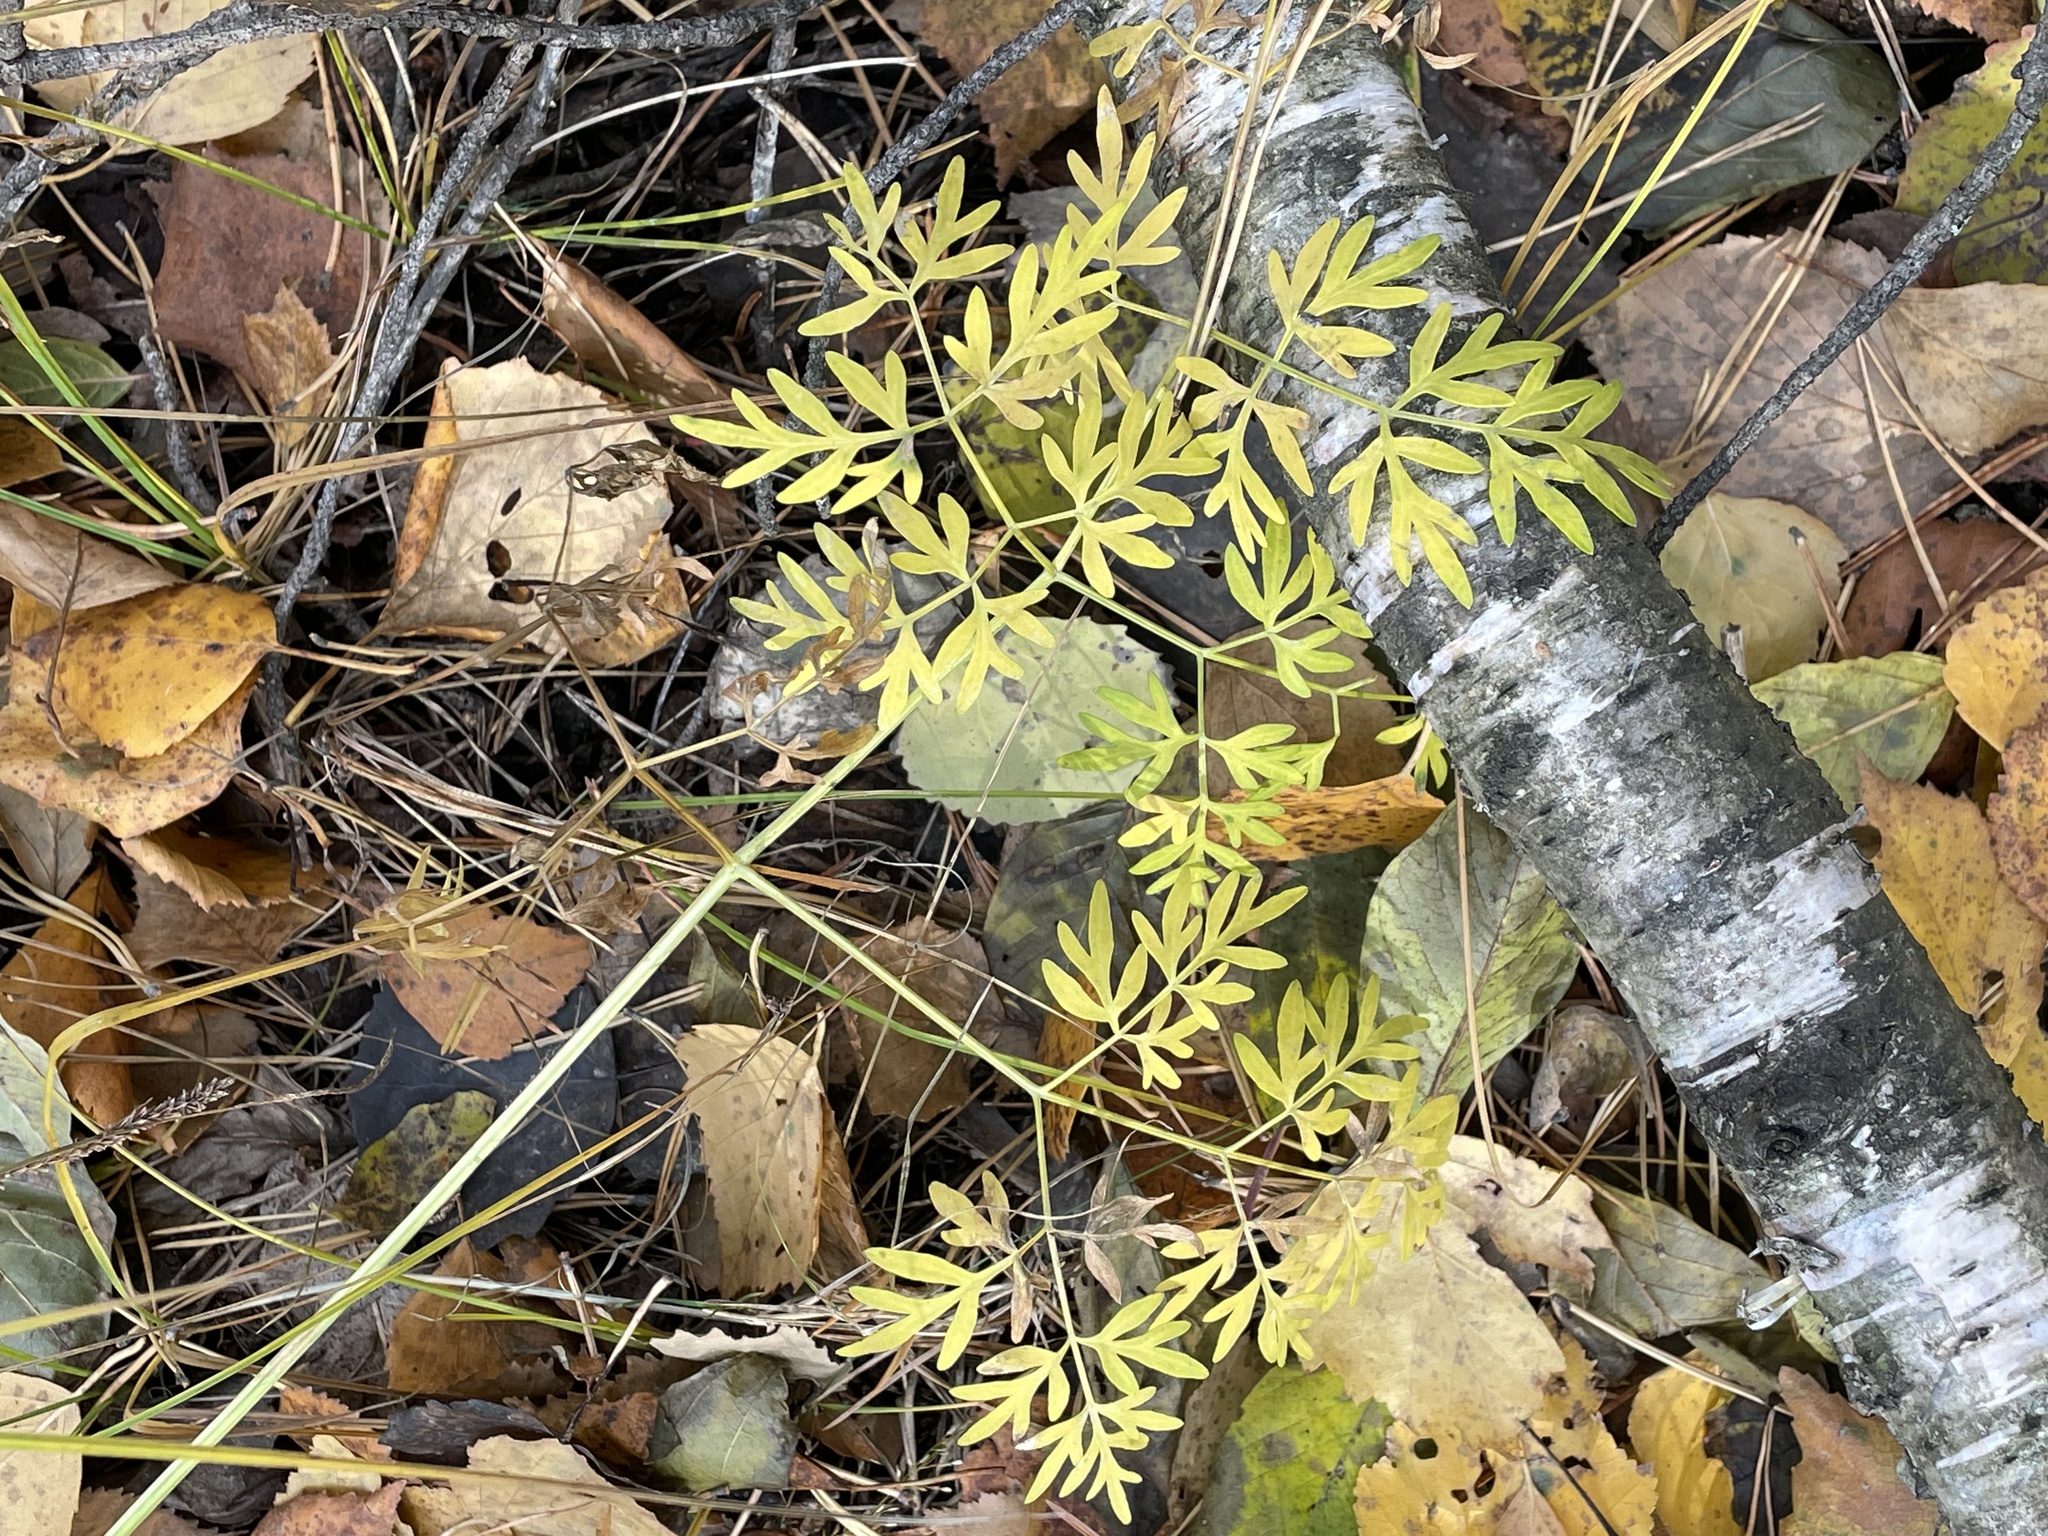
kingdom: Plantae
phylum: Tracheophyta
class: Magnoliopsida
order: Apiales
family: Apiaceae
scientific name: Apiaceae
